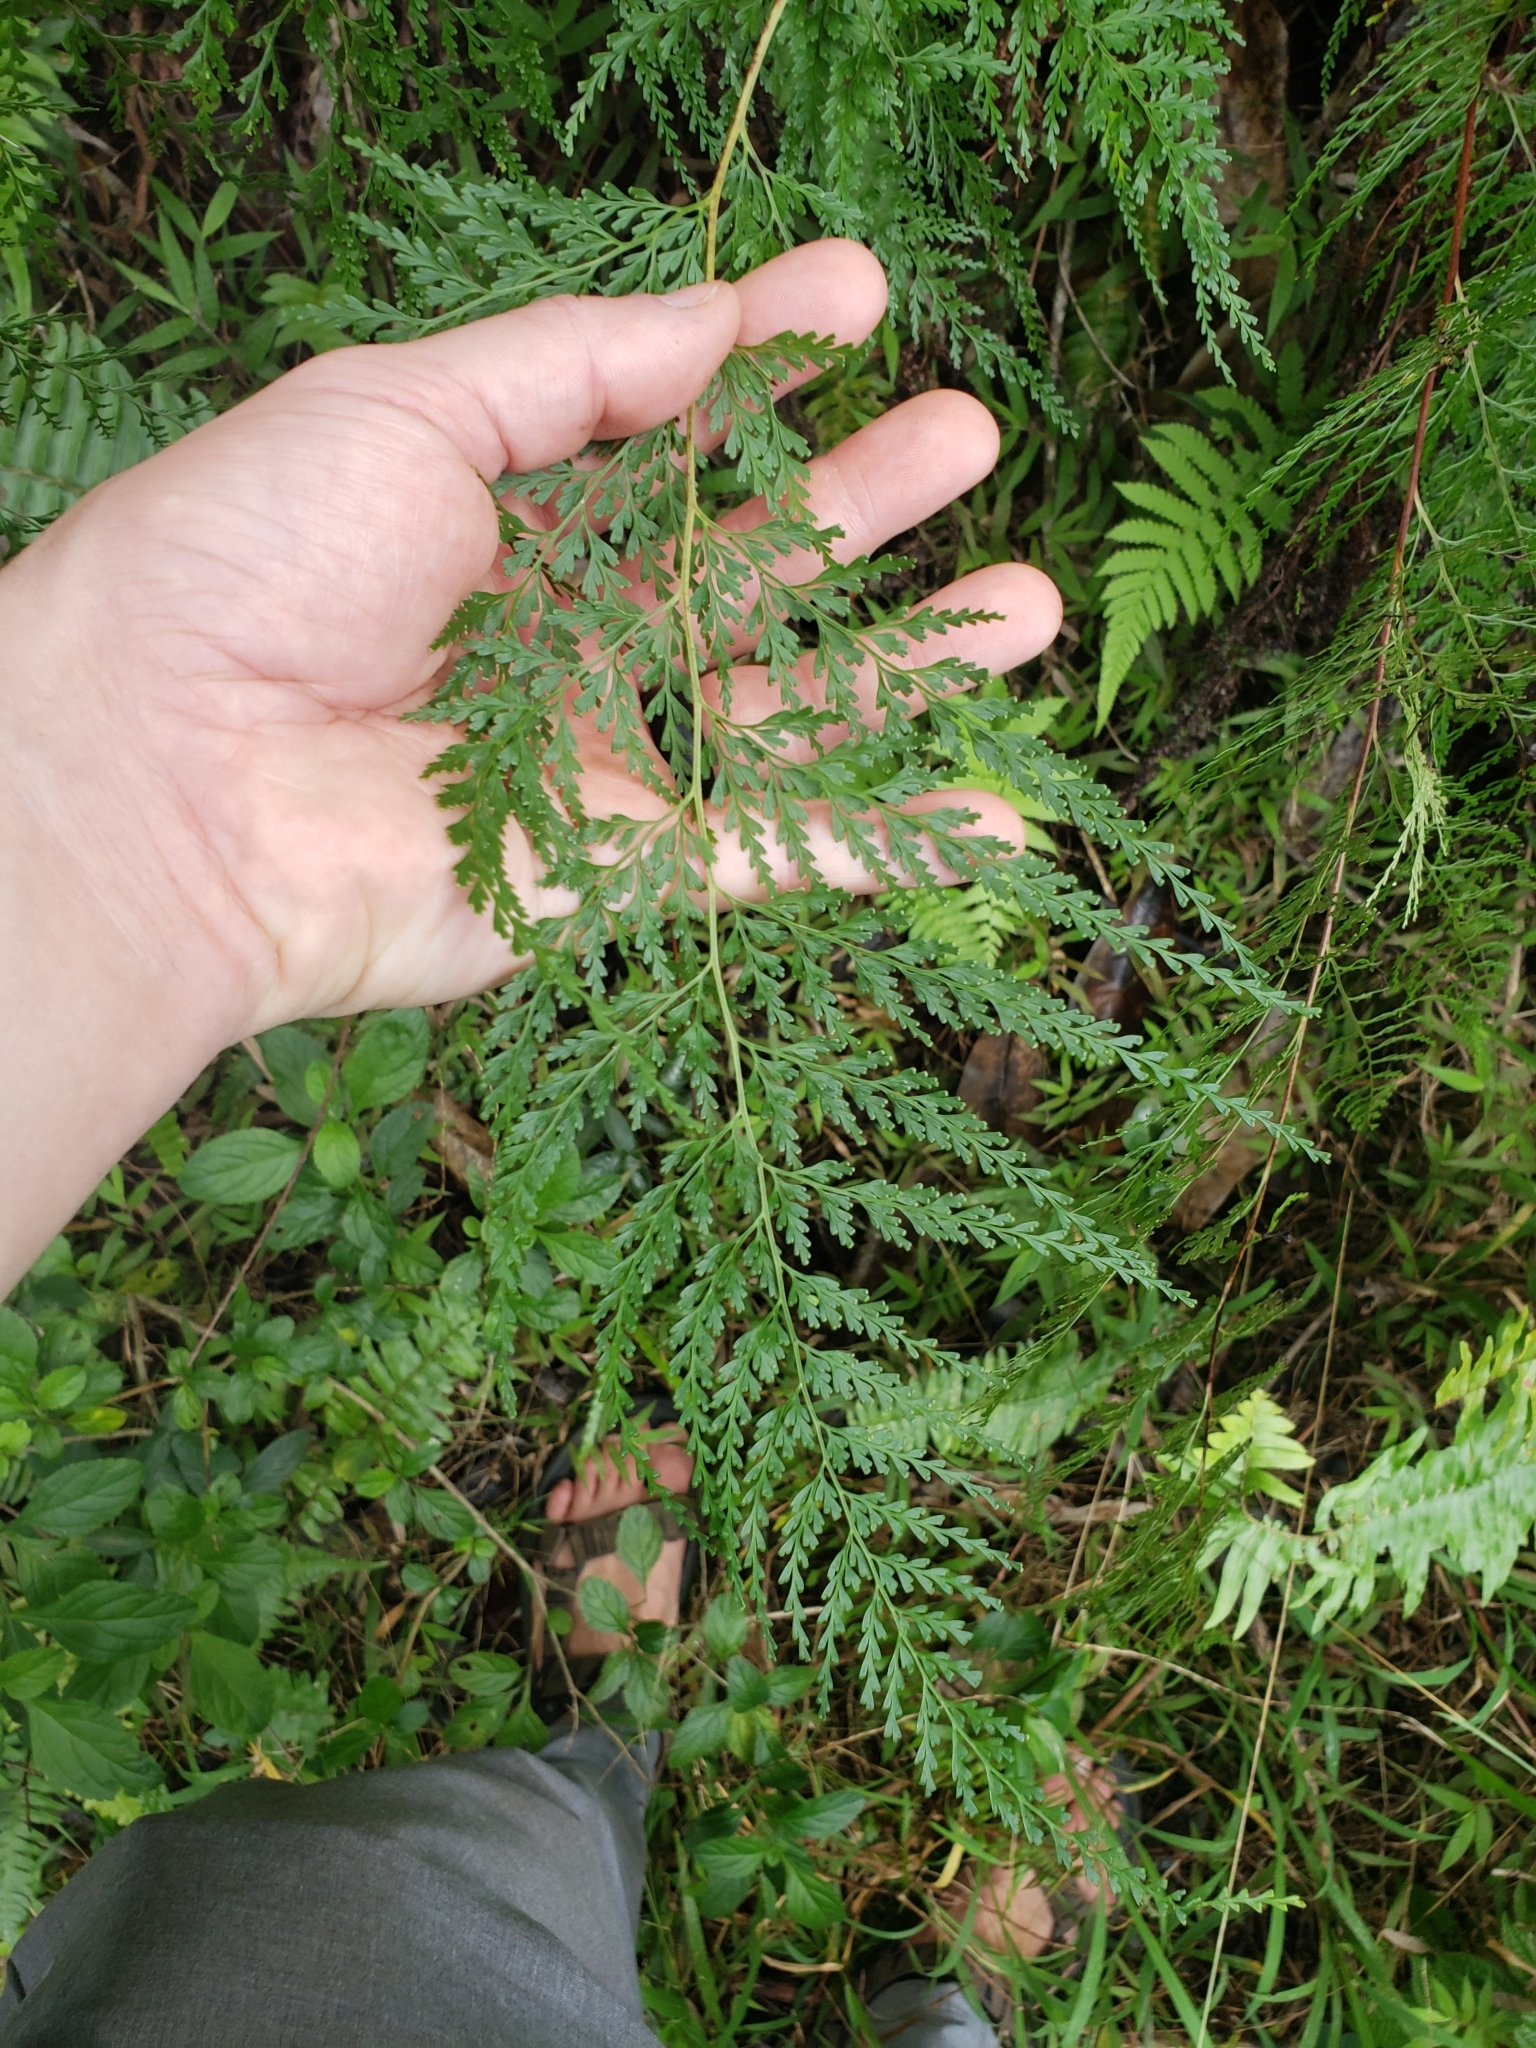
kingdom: Plantae
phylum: Tracheophyta
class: Polypodiopsida
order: Polypodiales
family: Lindsaeaceae
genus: Odontosoria
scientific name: Odontosoria chinensis
